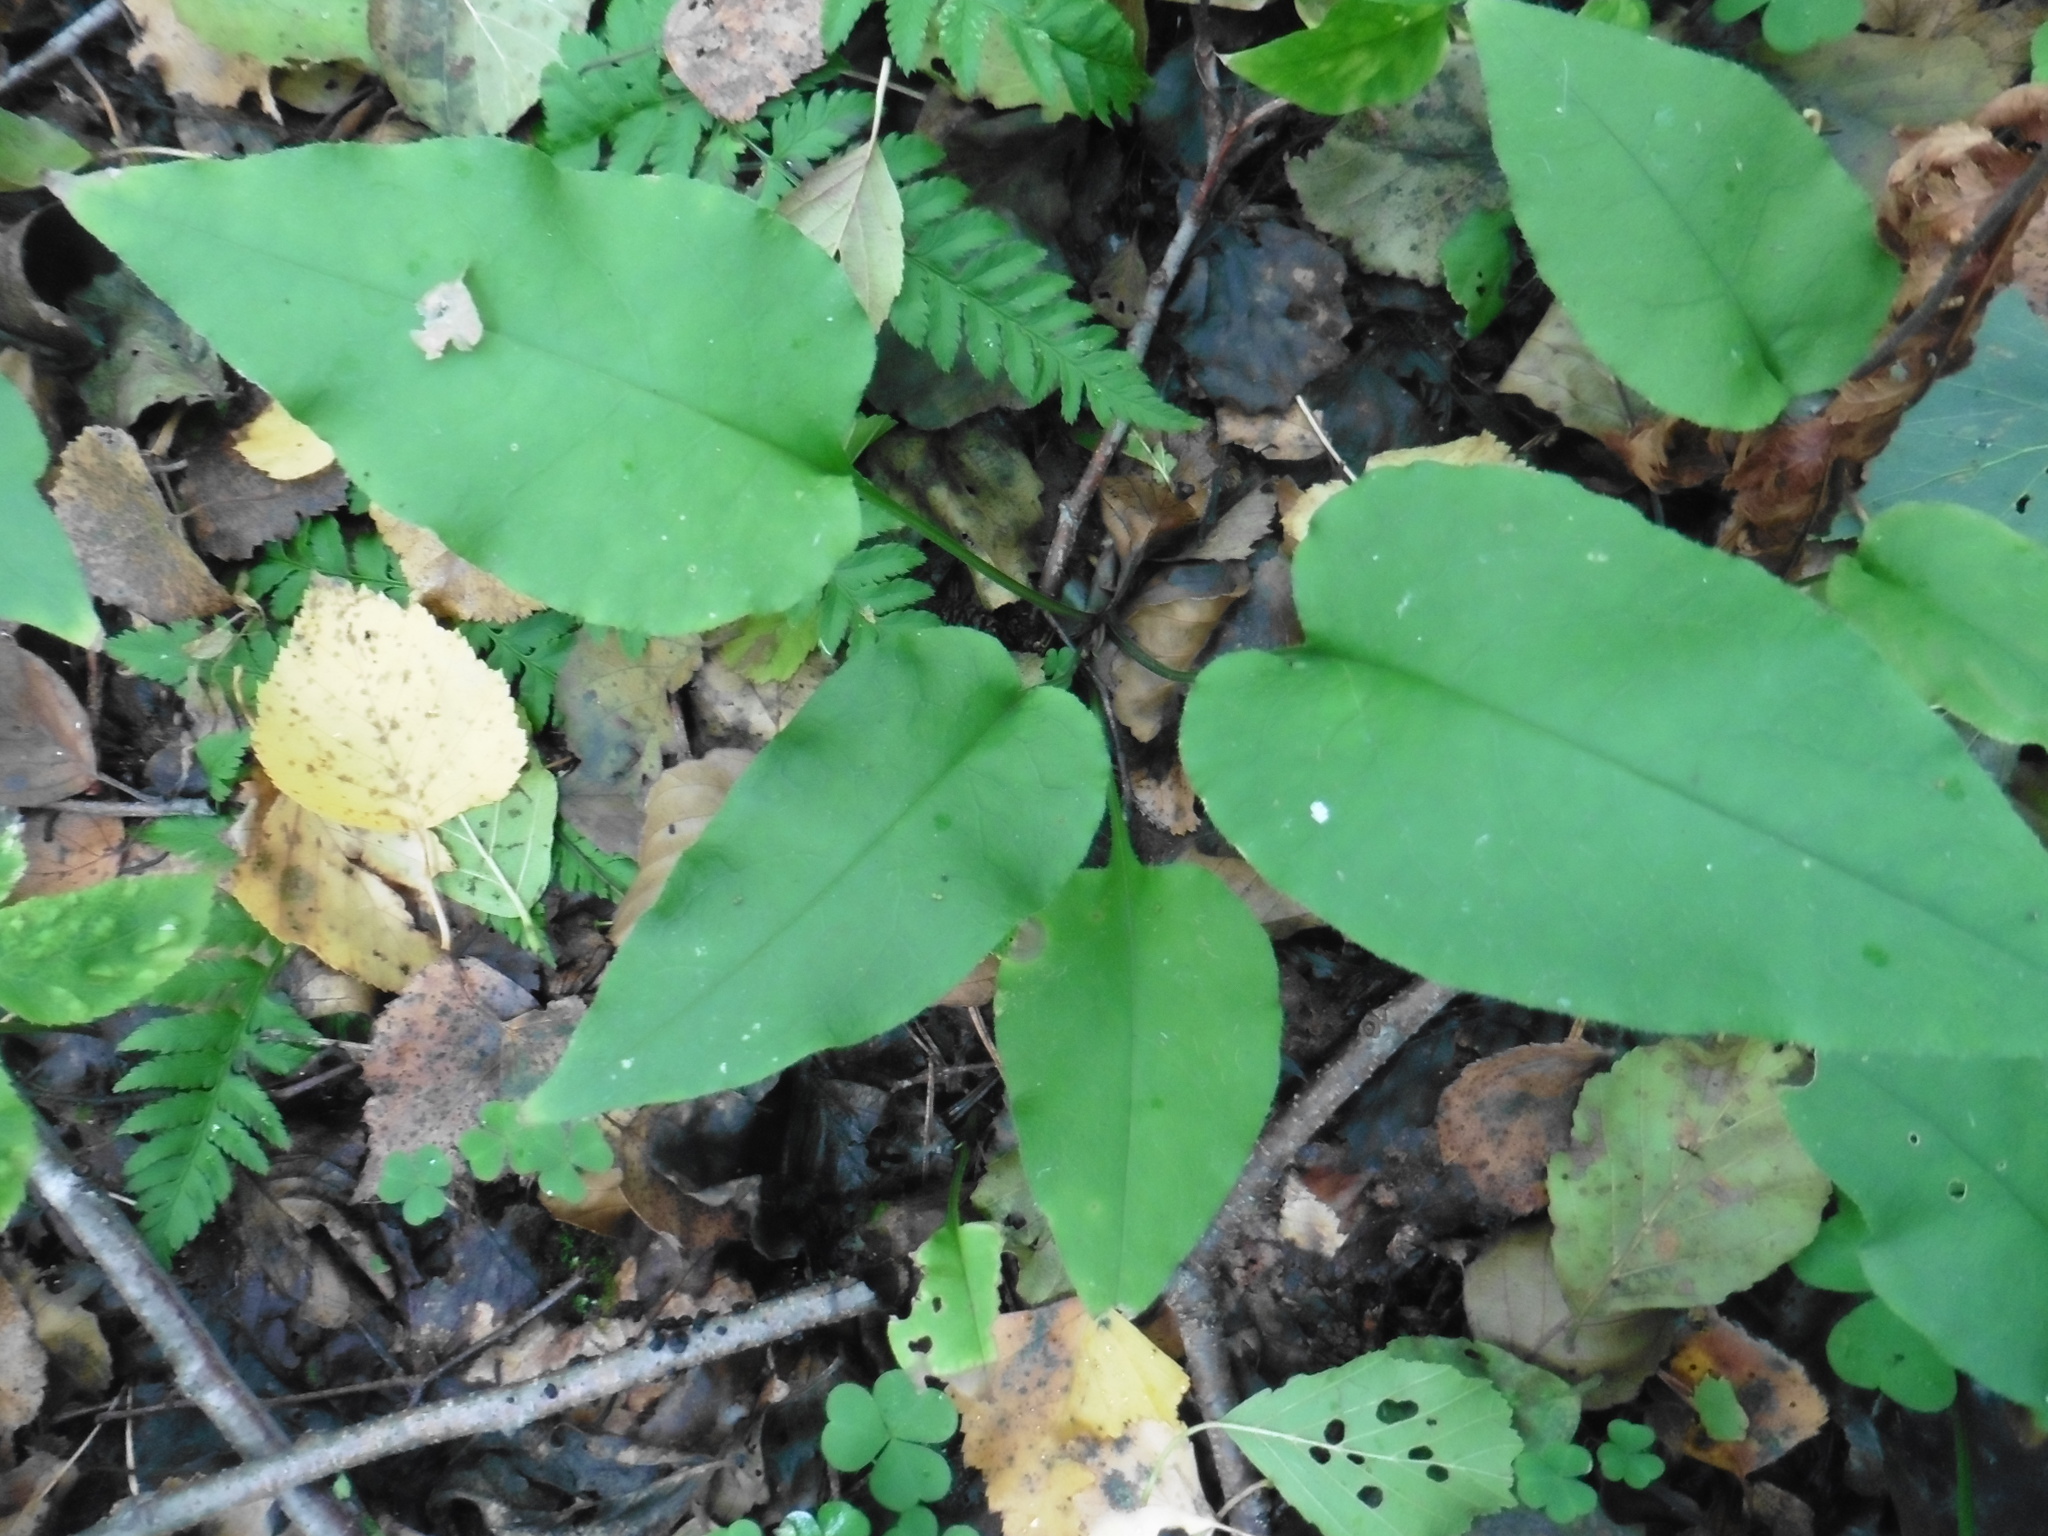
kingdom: Plantae
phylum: Tracheophyta
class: Magnoliopsida
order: Boraginales
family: Boraginaceae
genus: Pulmonaria
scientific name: Pulmonaria obscura
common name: Suffolk lungwort
